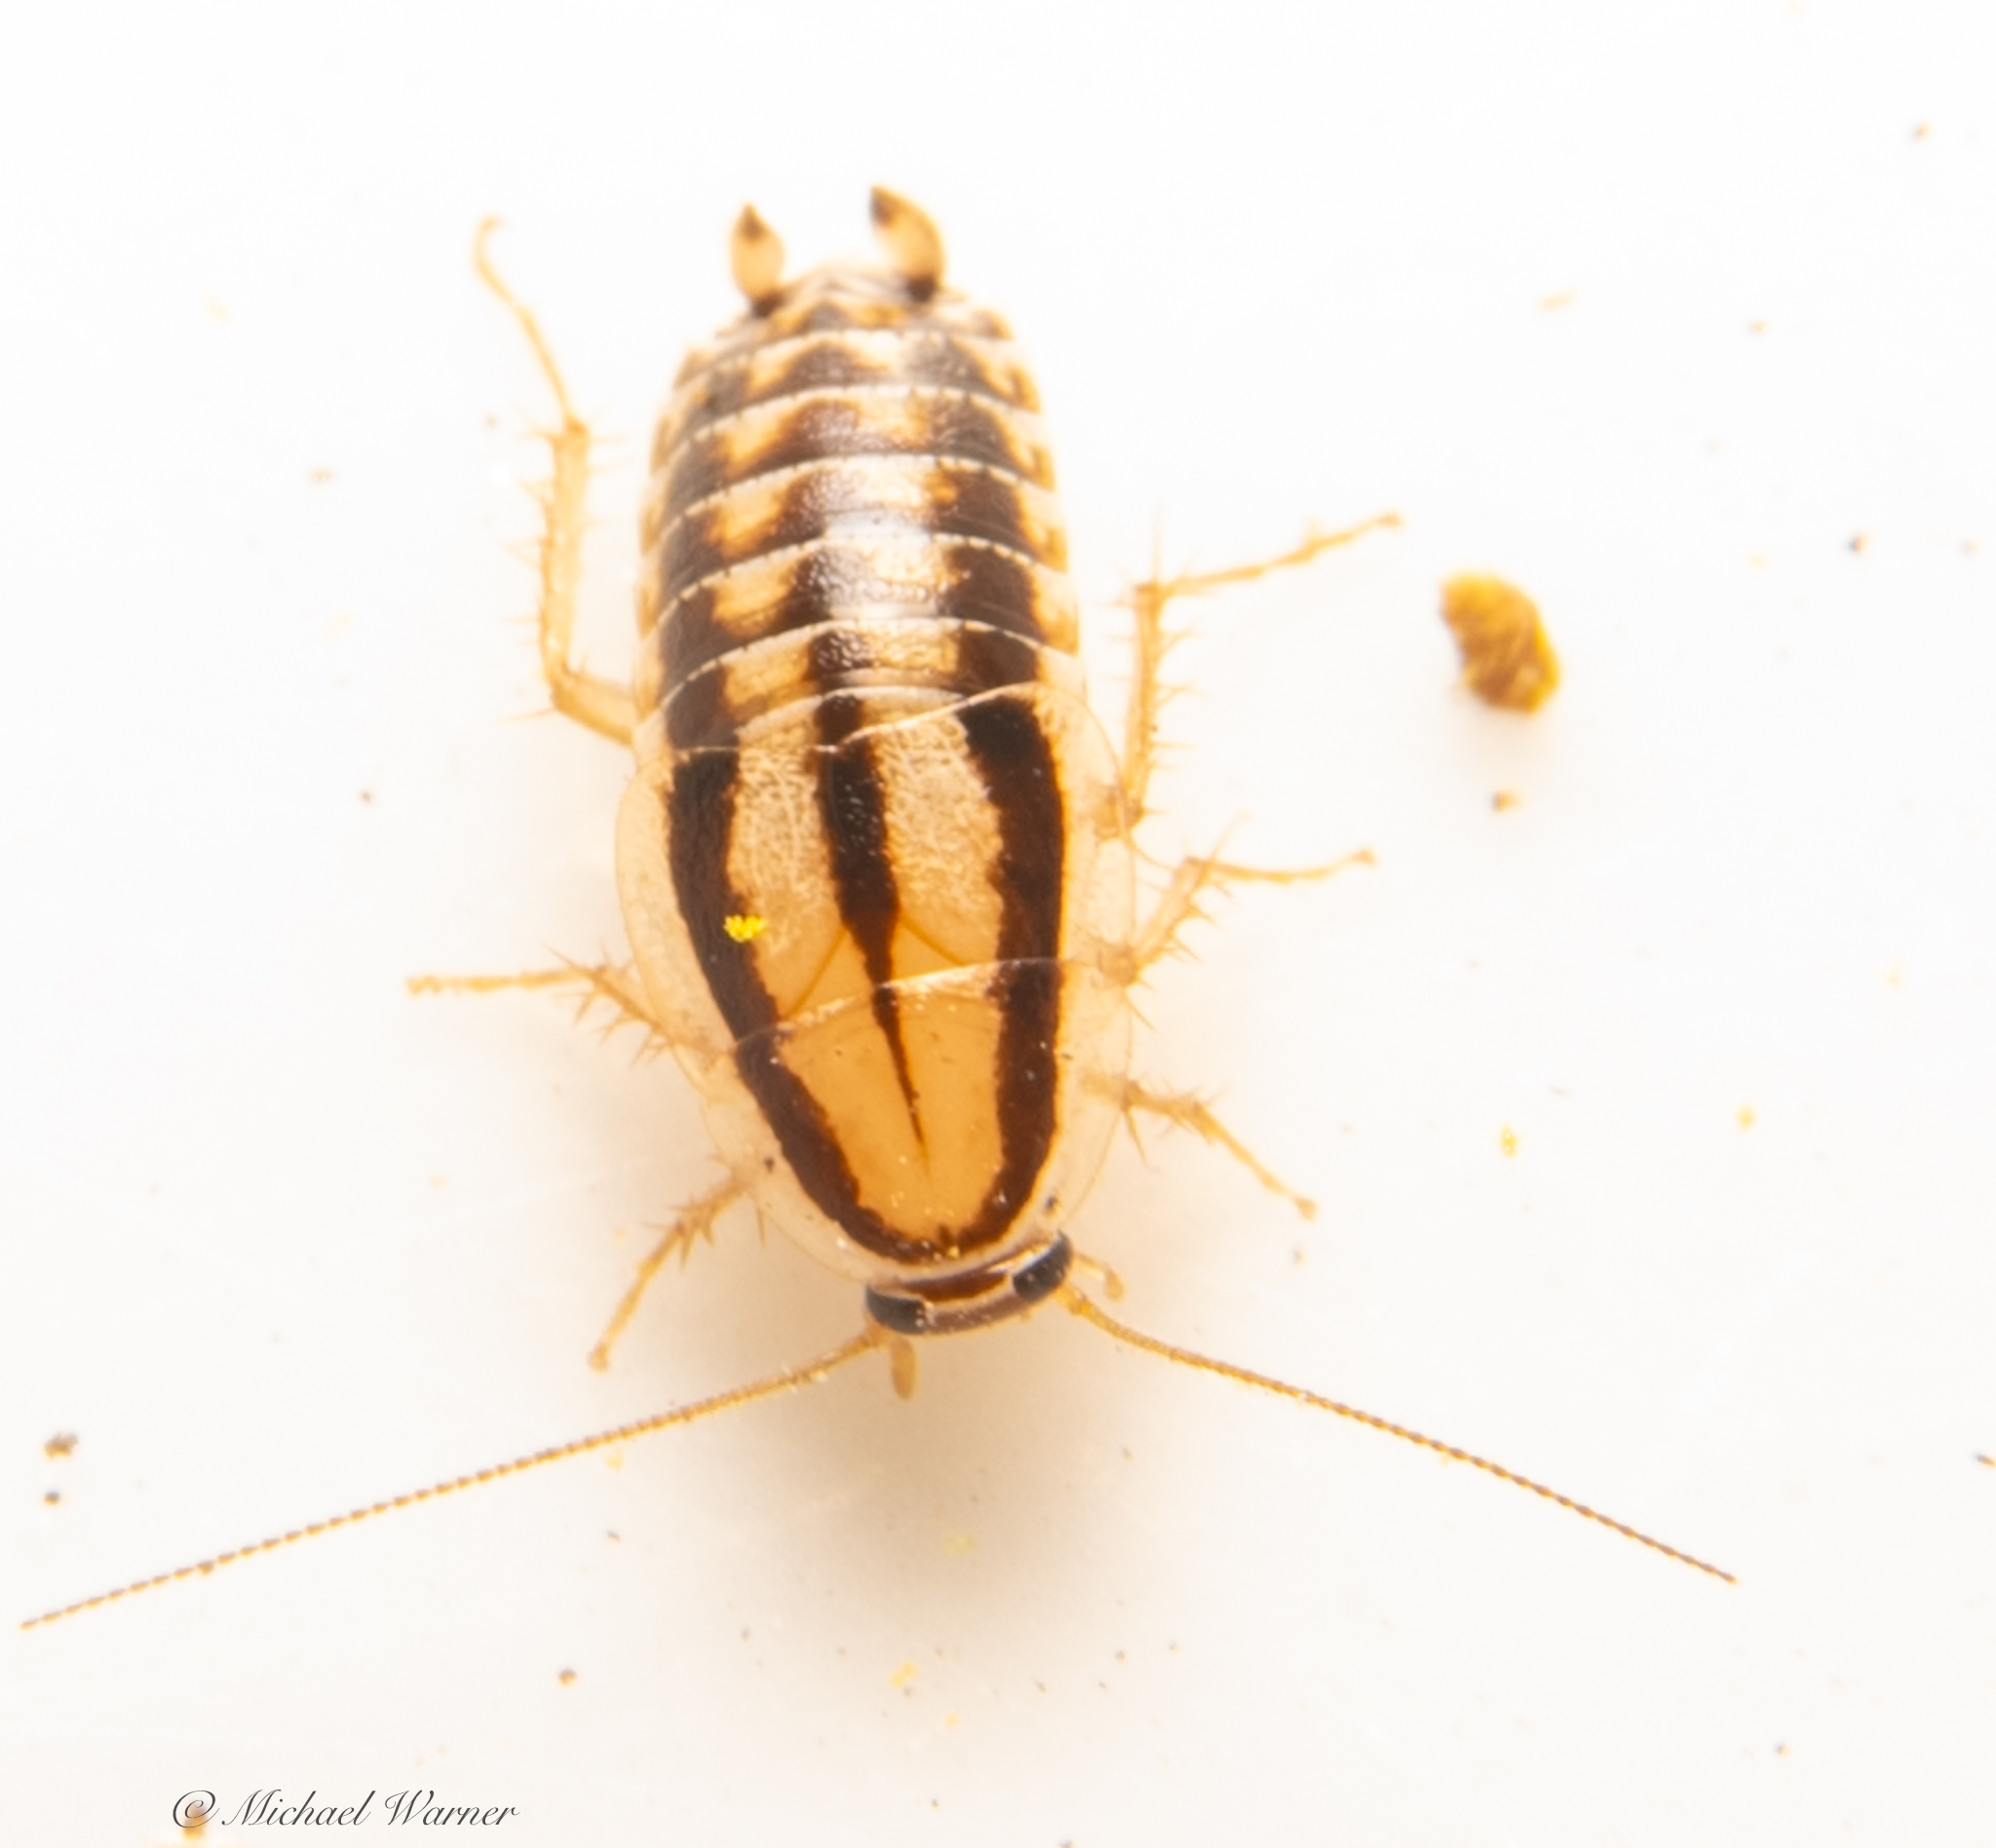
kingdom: Animalia
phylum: Arthropoda
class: Insecta
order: Blattodea
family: Ectobiidae
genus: Luridiblatta
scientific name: Luridiblatta trivittata
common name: Three-lined cockroach
